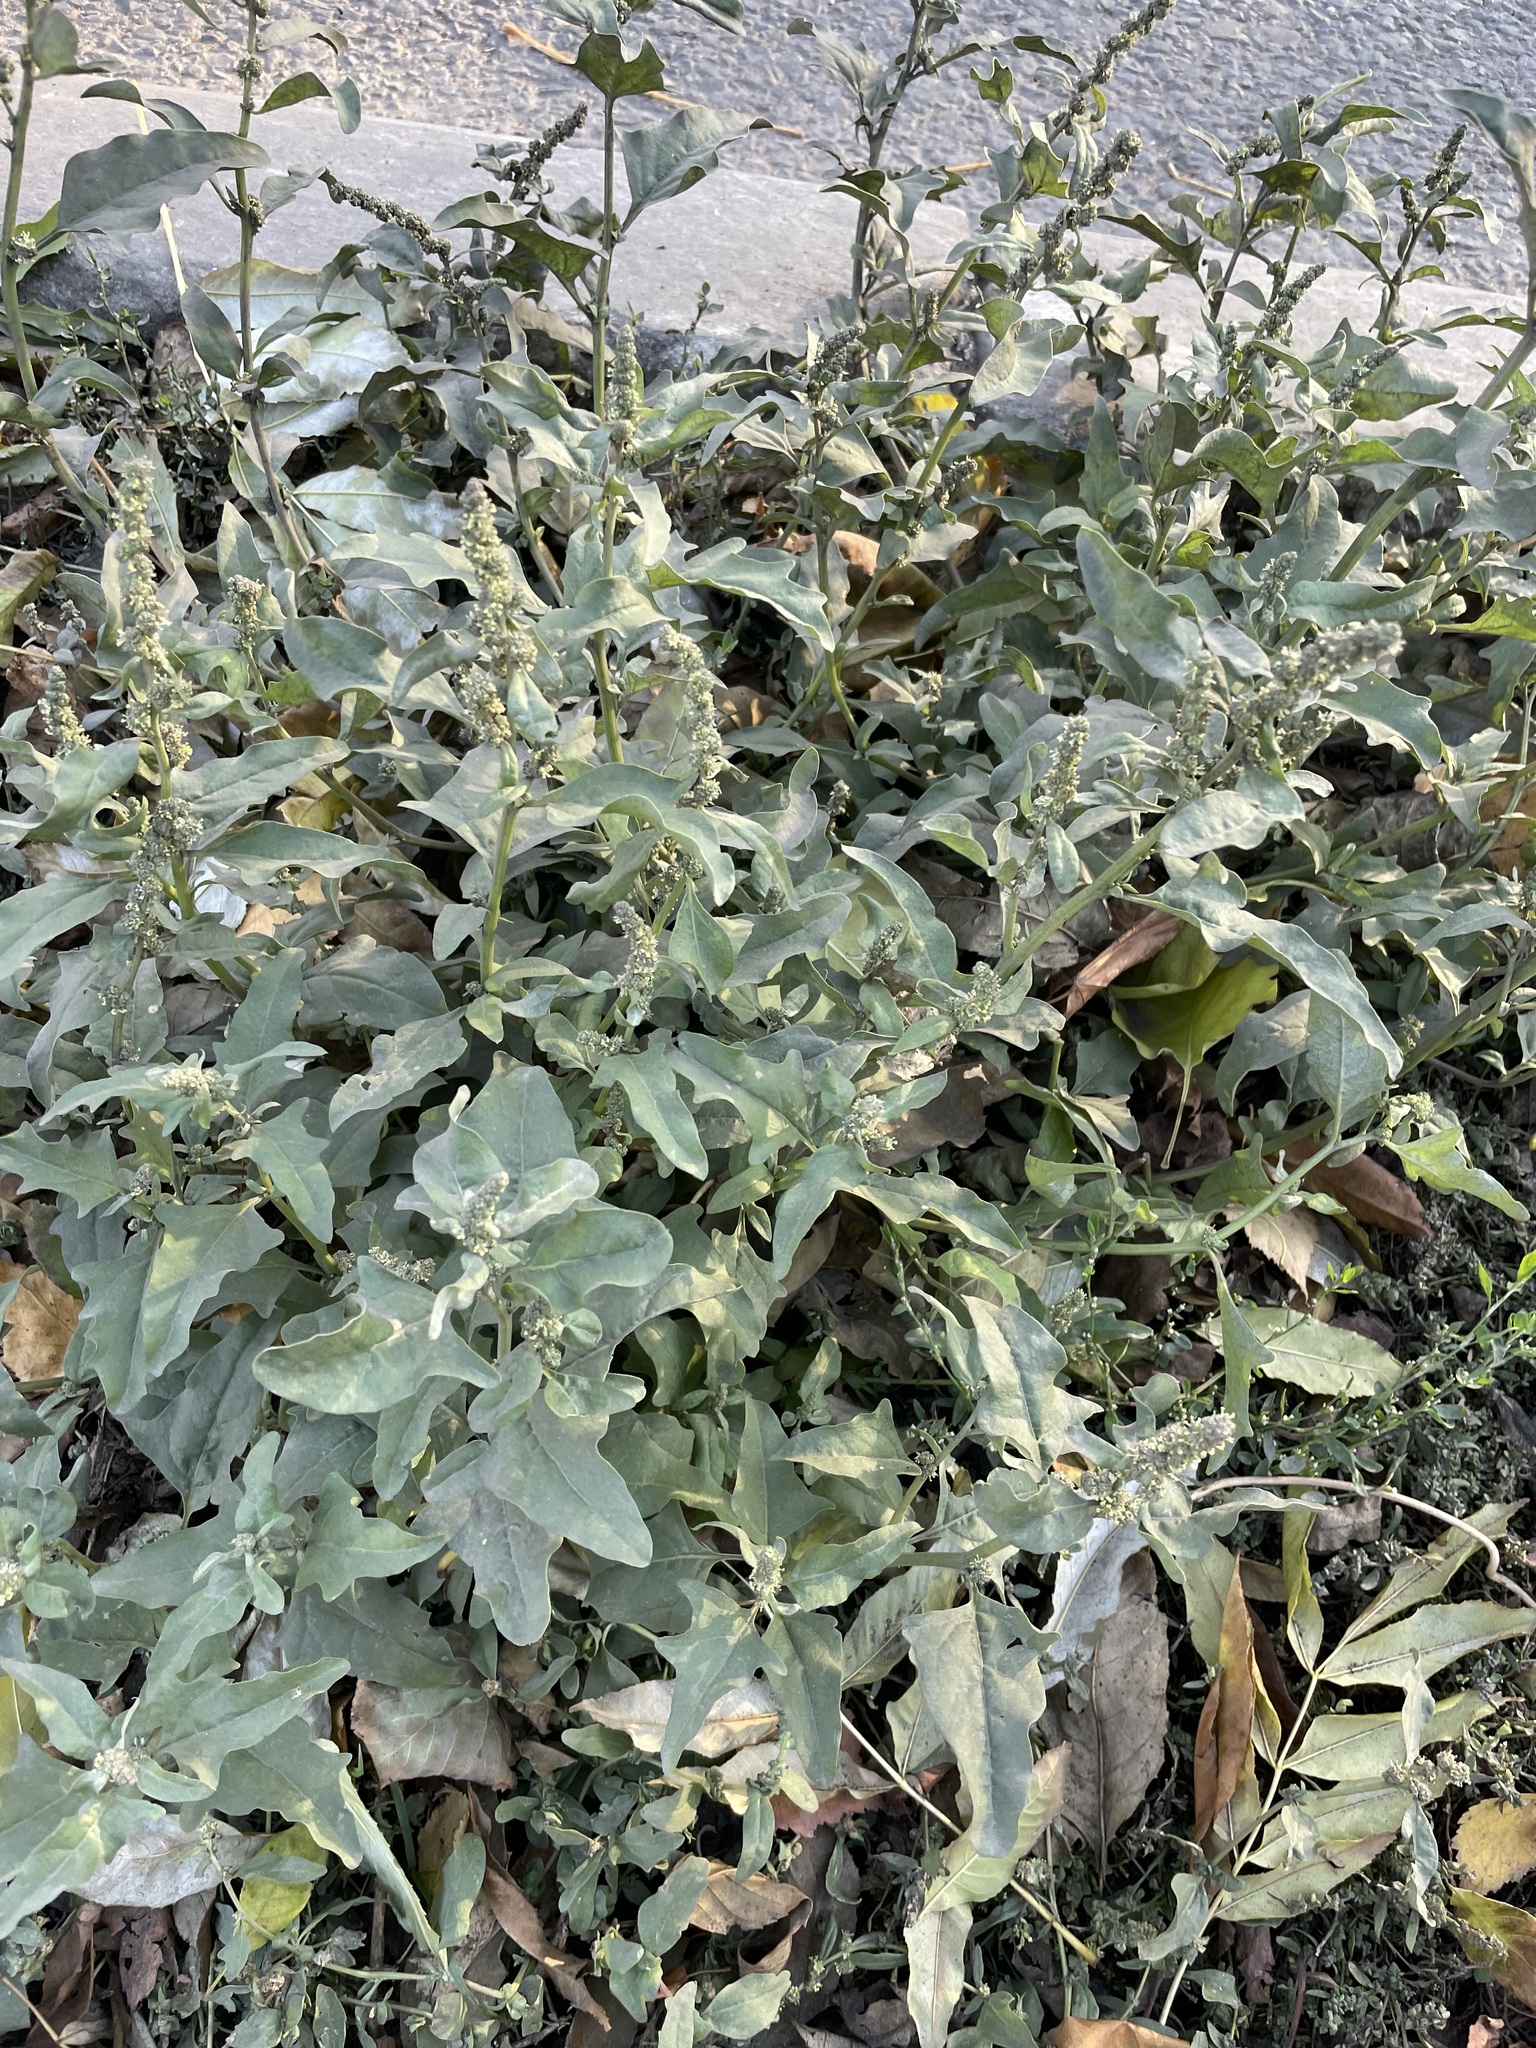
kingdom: Plantae
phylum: Tracheophyta
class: Magnoliopsida
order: Caryophyllales
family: Amaranthaceae
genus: Atriplex
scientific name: Atriplex tatarica
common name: Tatarian orache
